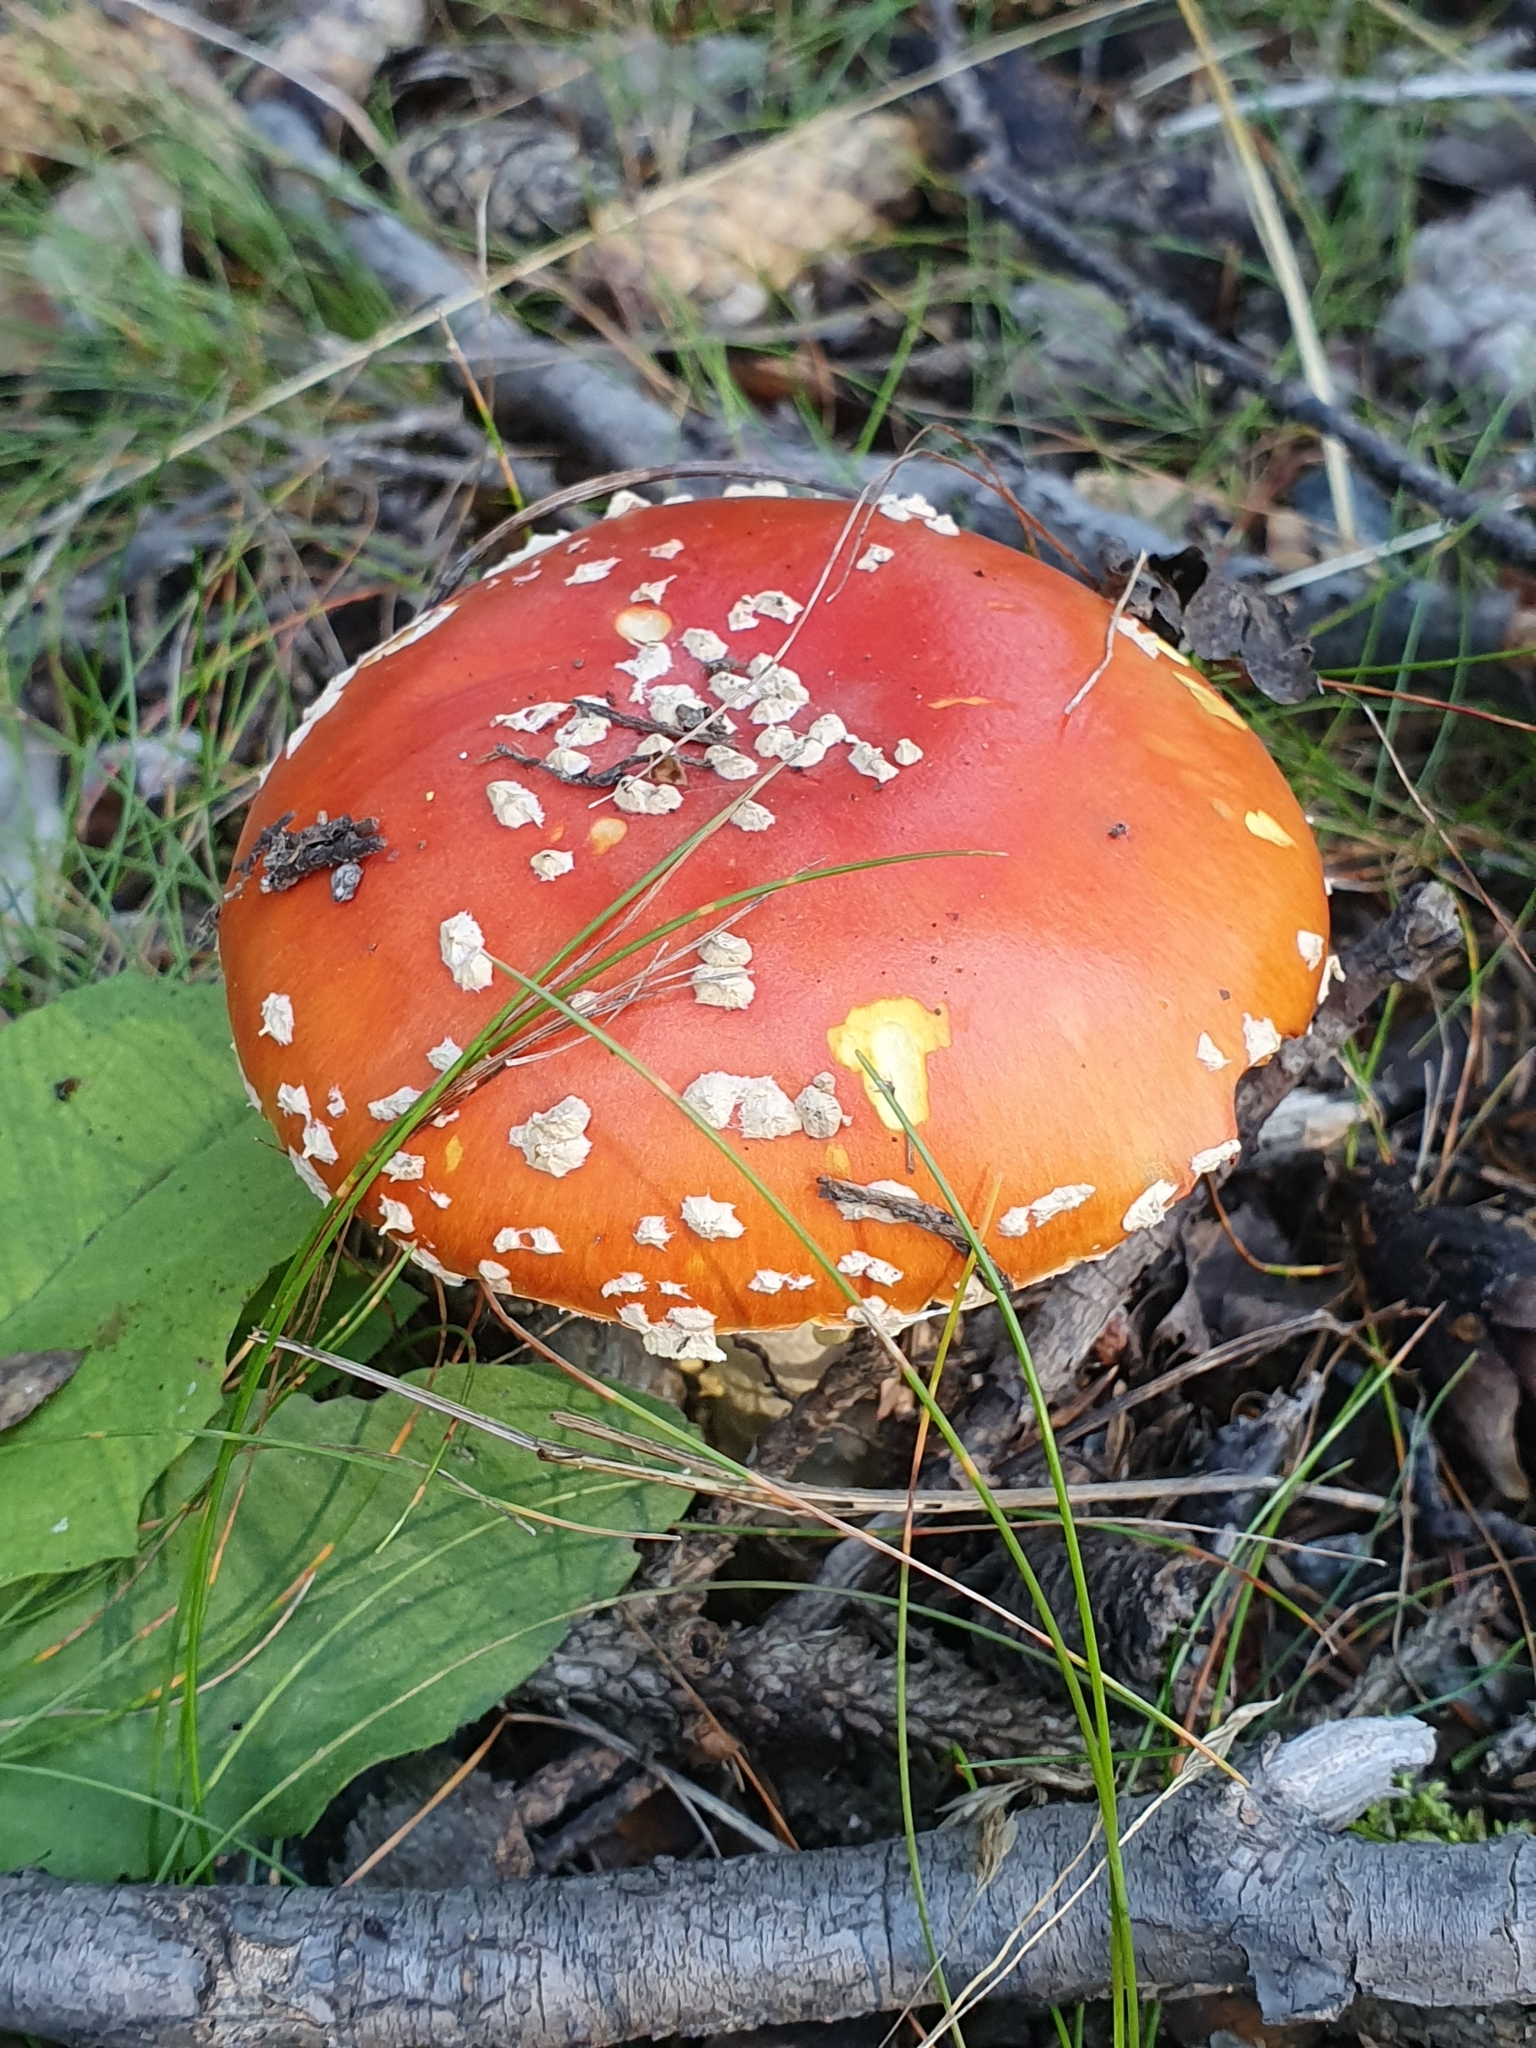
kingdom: Fungi
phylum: Basidiomycota
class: Agaricomycetes
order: Agaricales
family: Amanitaceae
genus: Amanita
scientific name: Amanita muscaria
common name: Fly agaric
